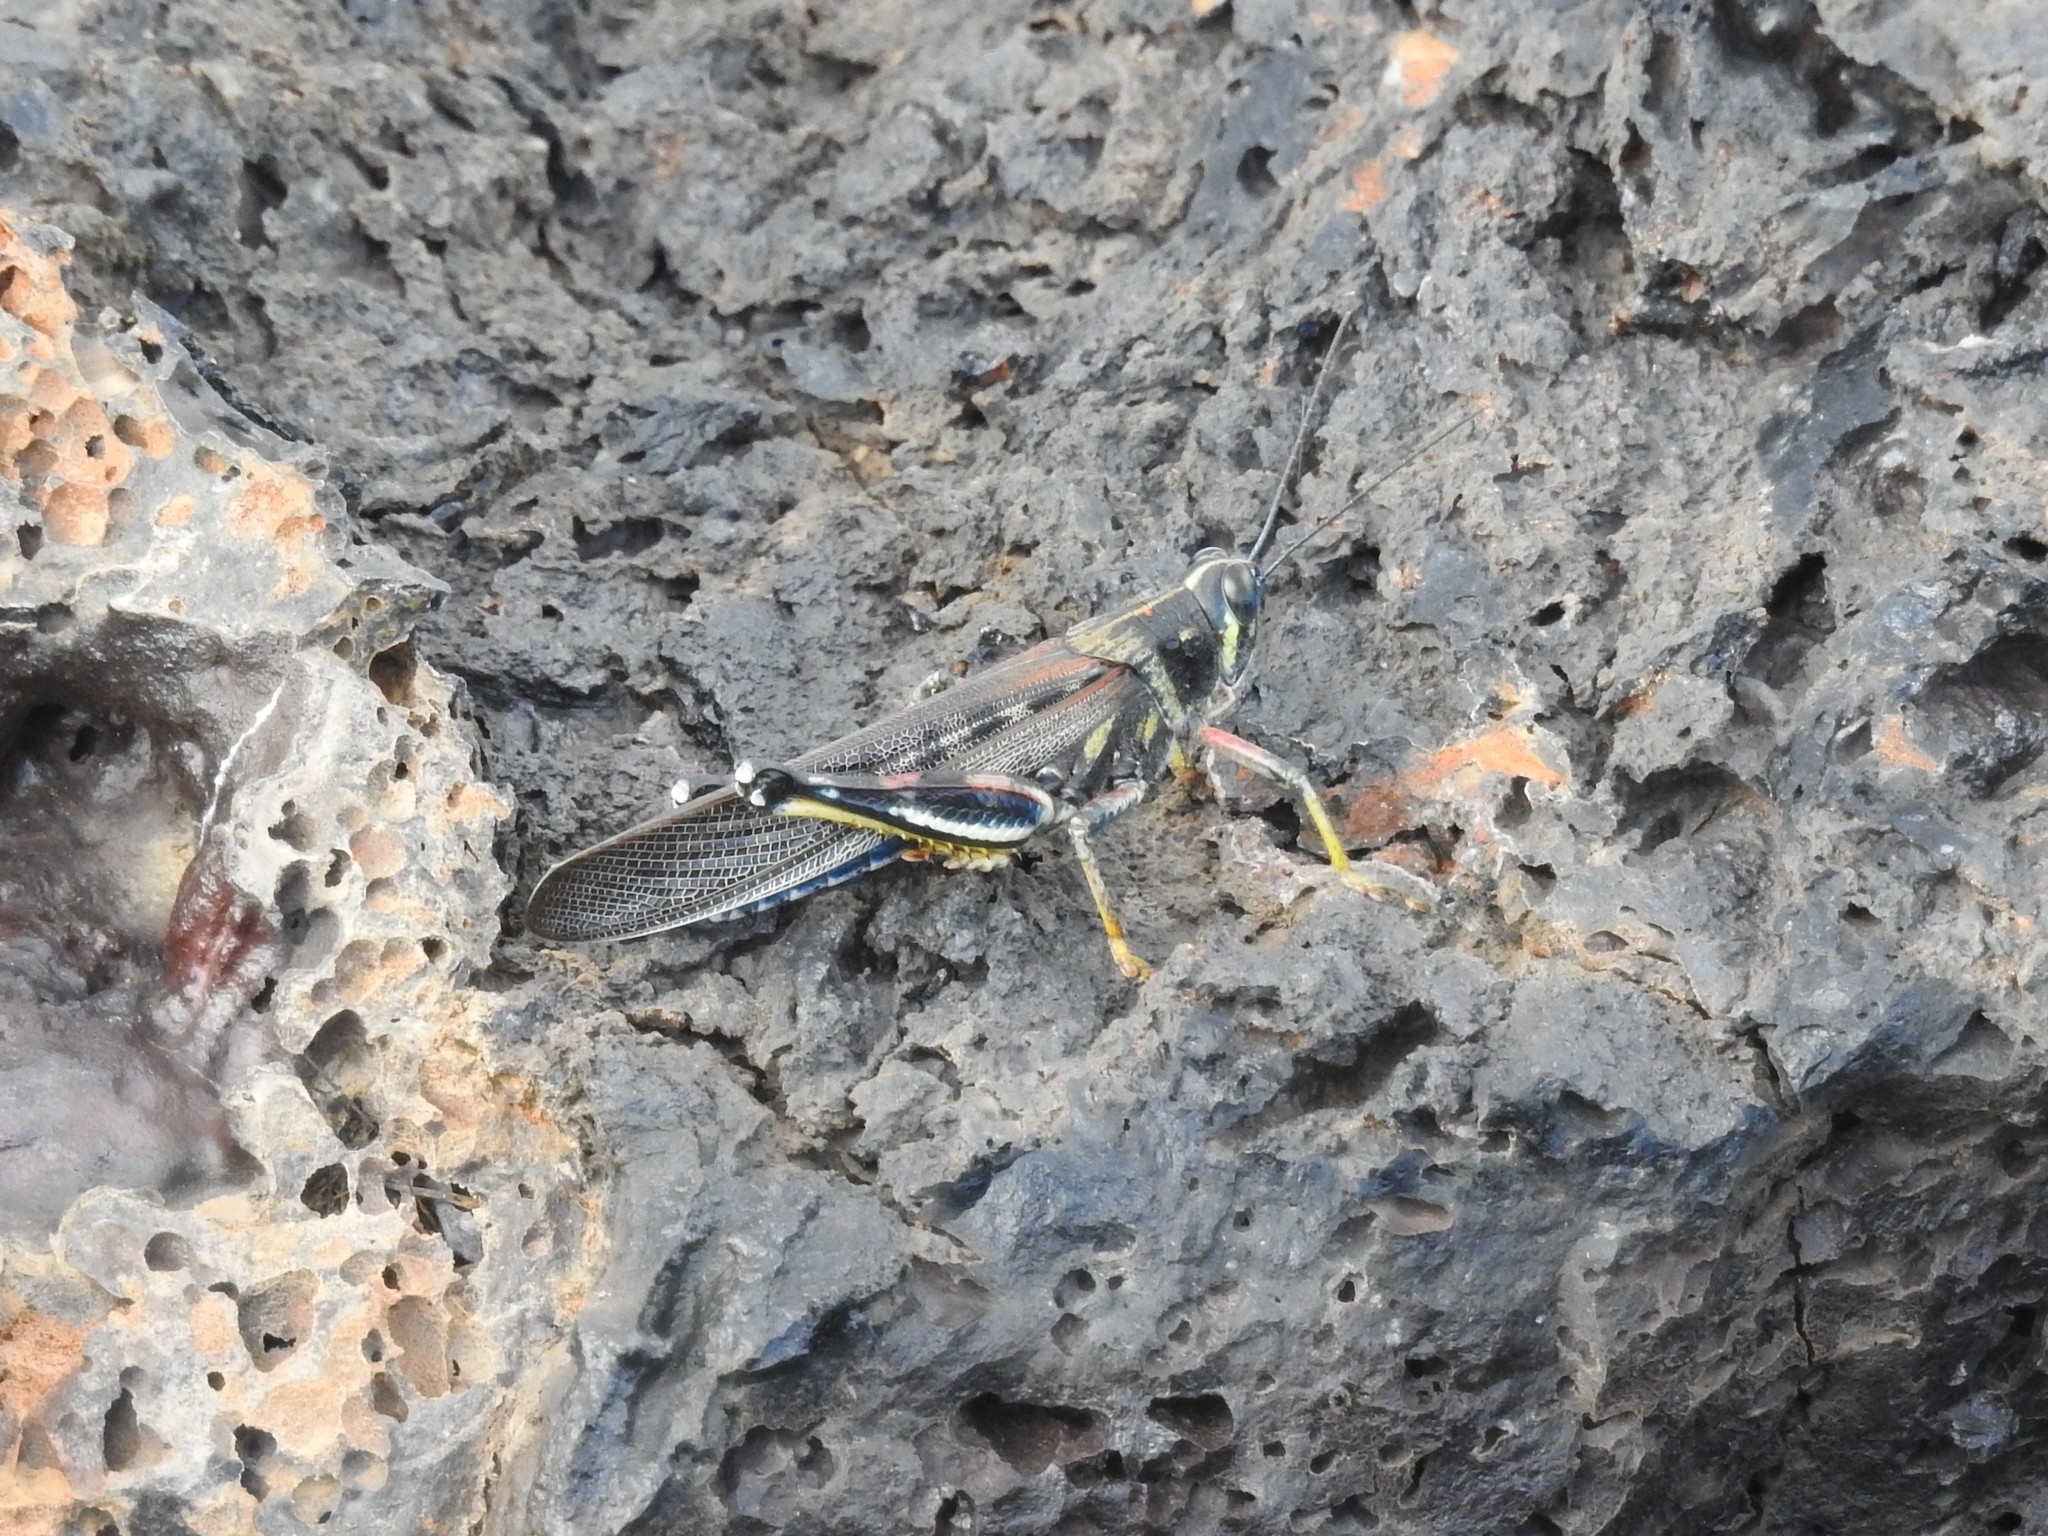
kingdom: Animalia
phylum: Arthropoda
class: Insecta
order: Orthoptera
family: Acrididae
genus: Schistocerca
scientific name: Schistocerca melanocera
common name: Large painted locust
